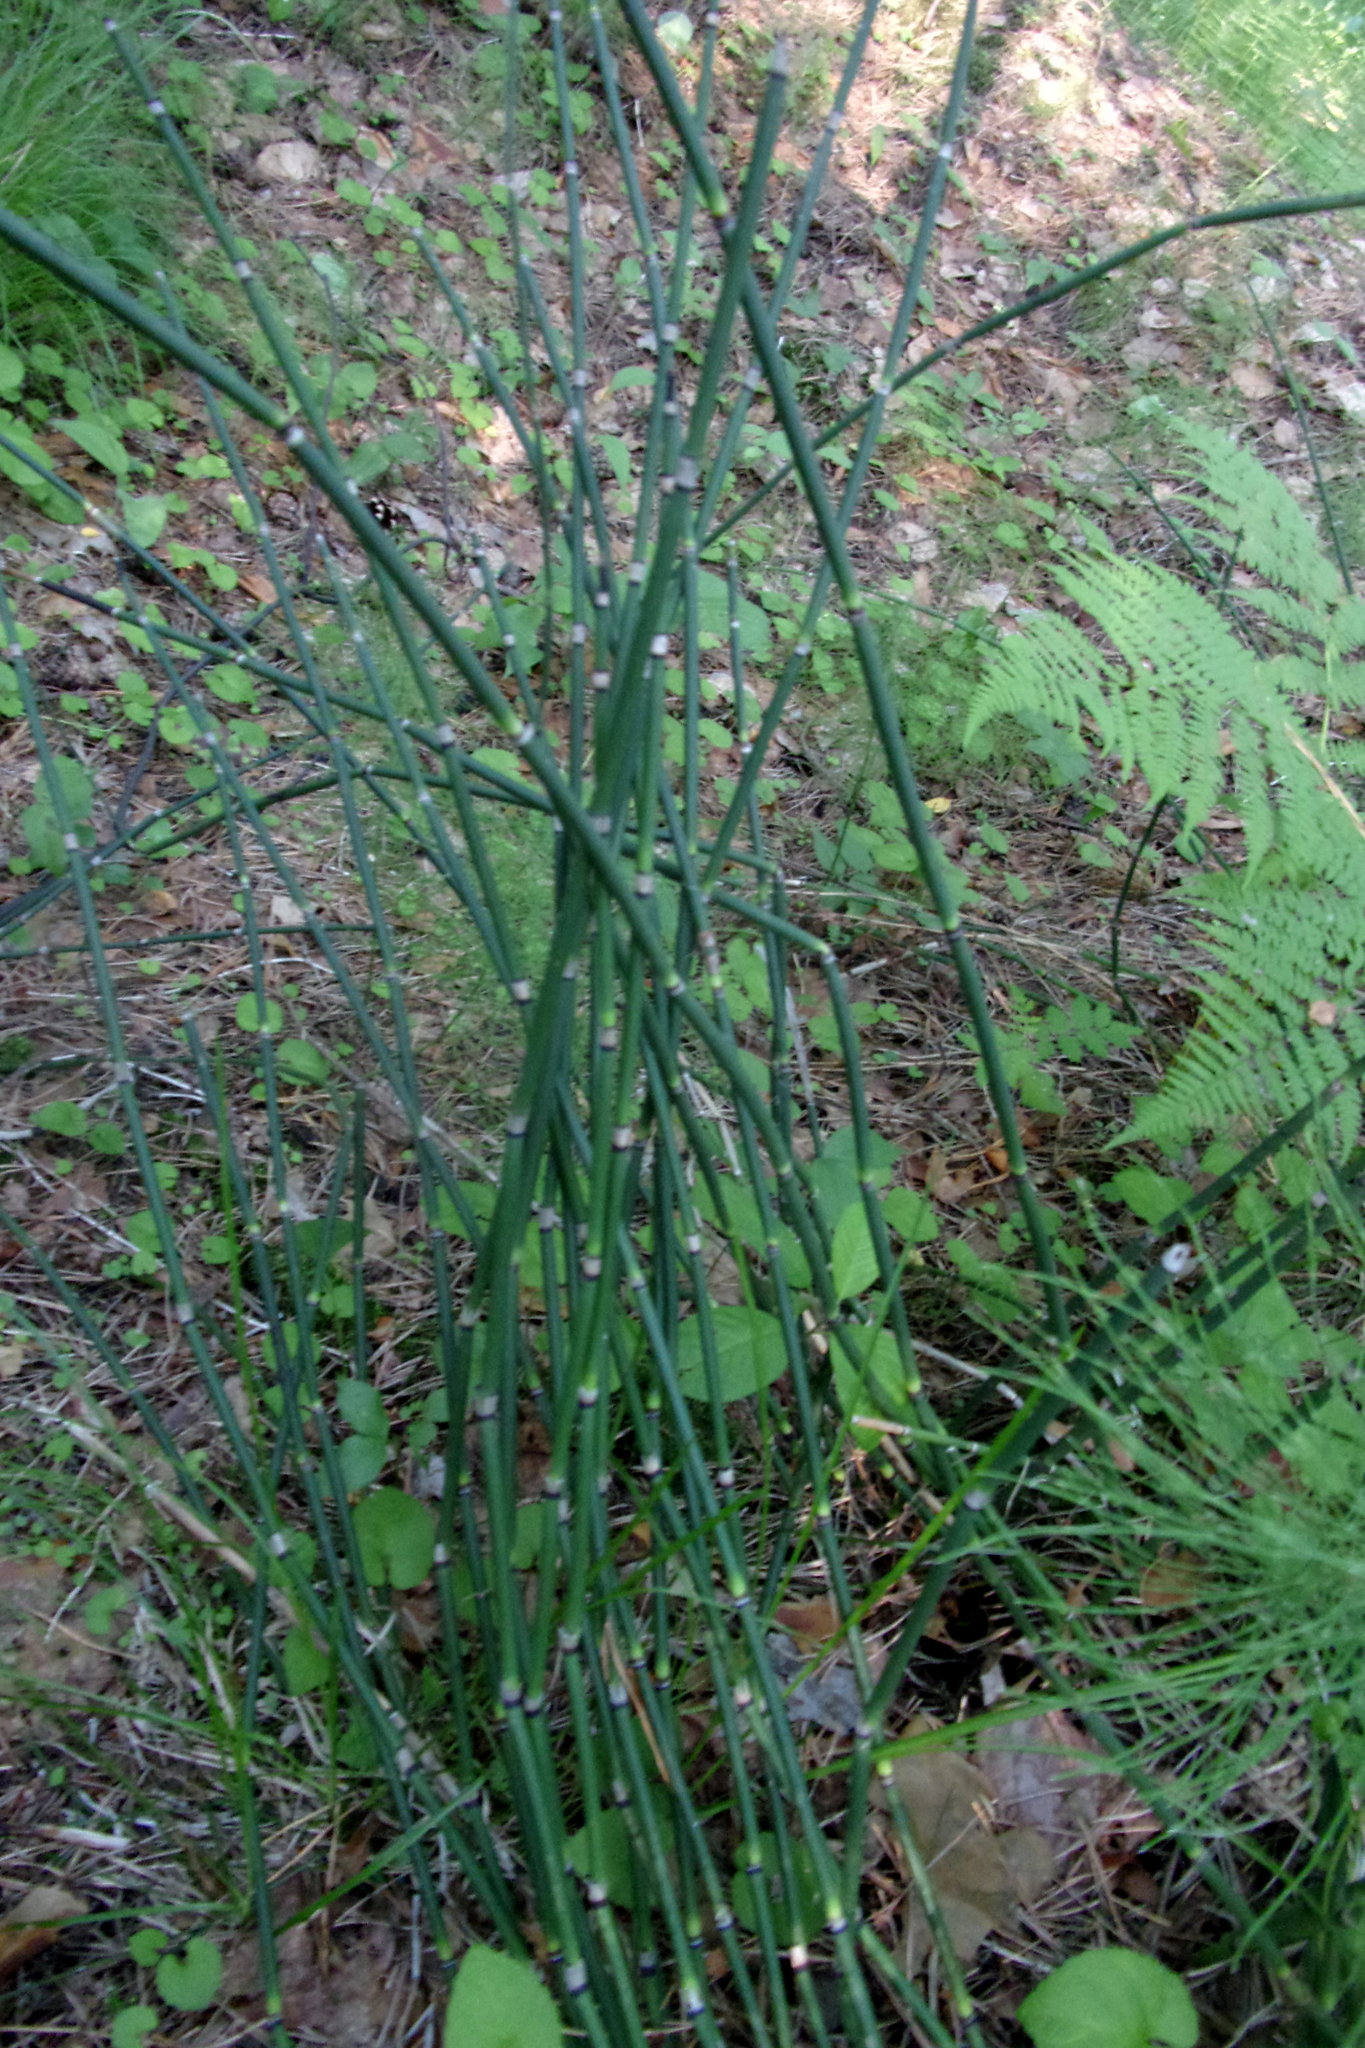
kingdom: Plantae
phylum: Tracheophyta
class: Polypodiopsida
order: Equisetales
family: Equisetaceae
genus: Equisetum
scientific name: Equisetum hyemale
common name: Rough horsetail
